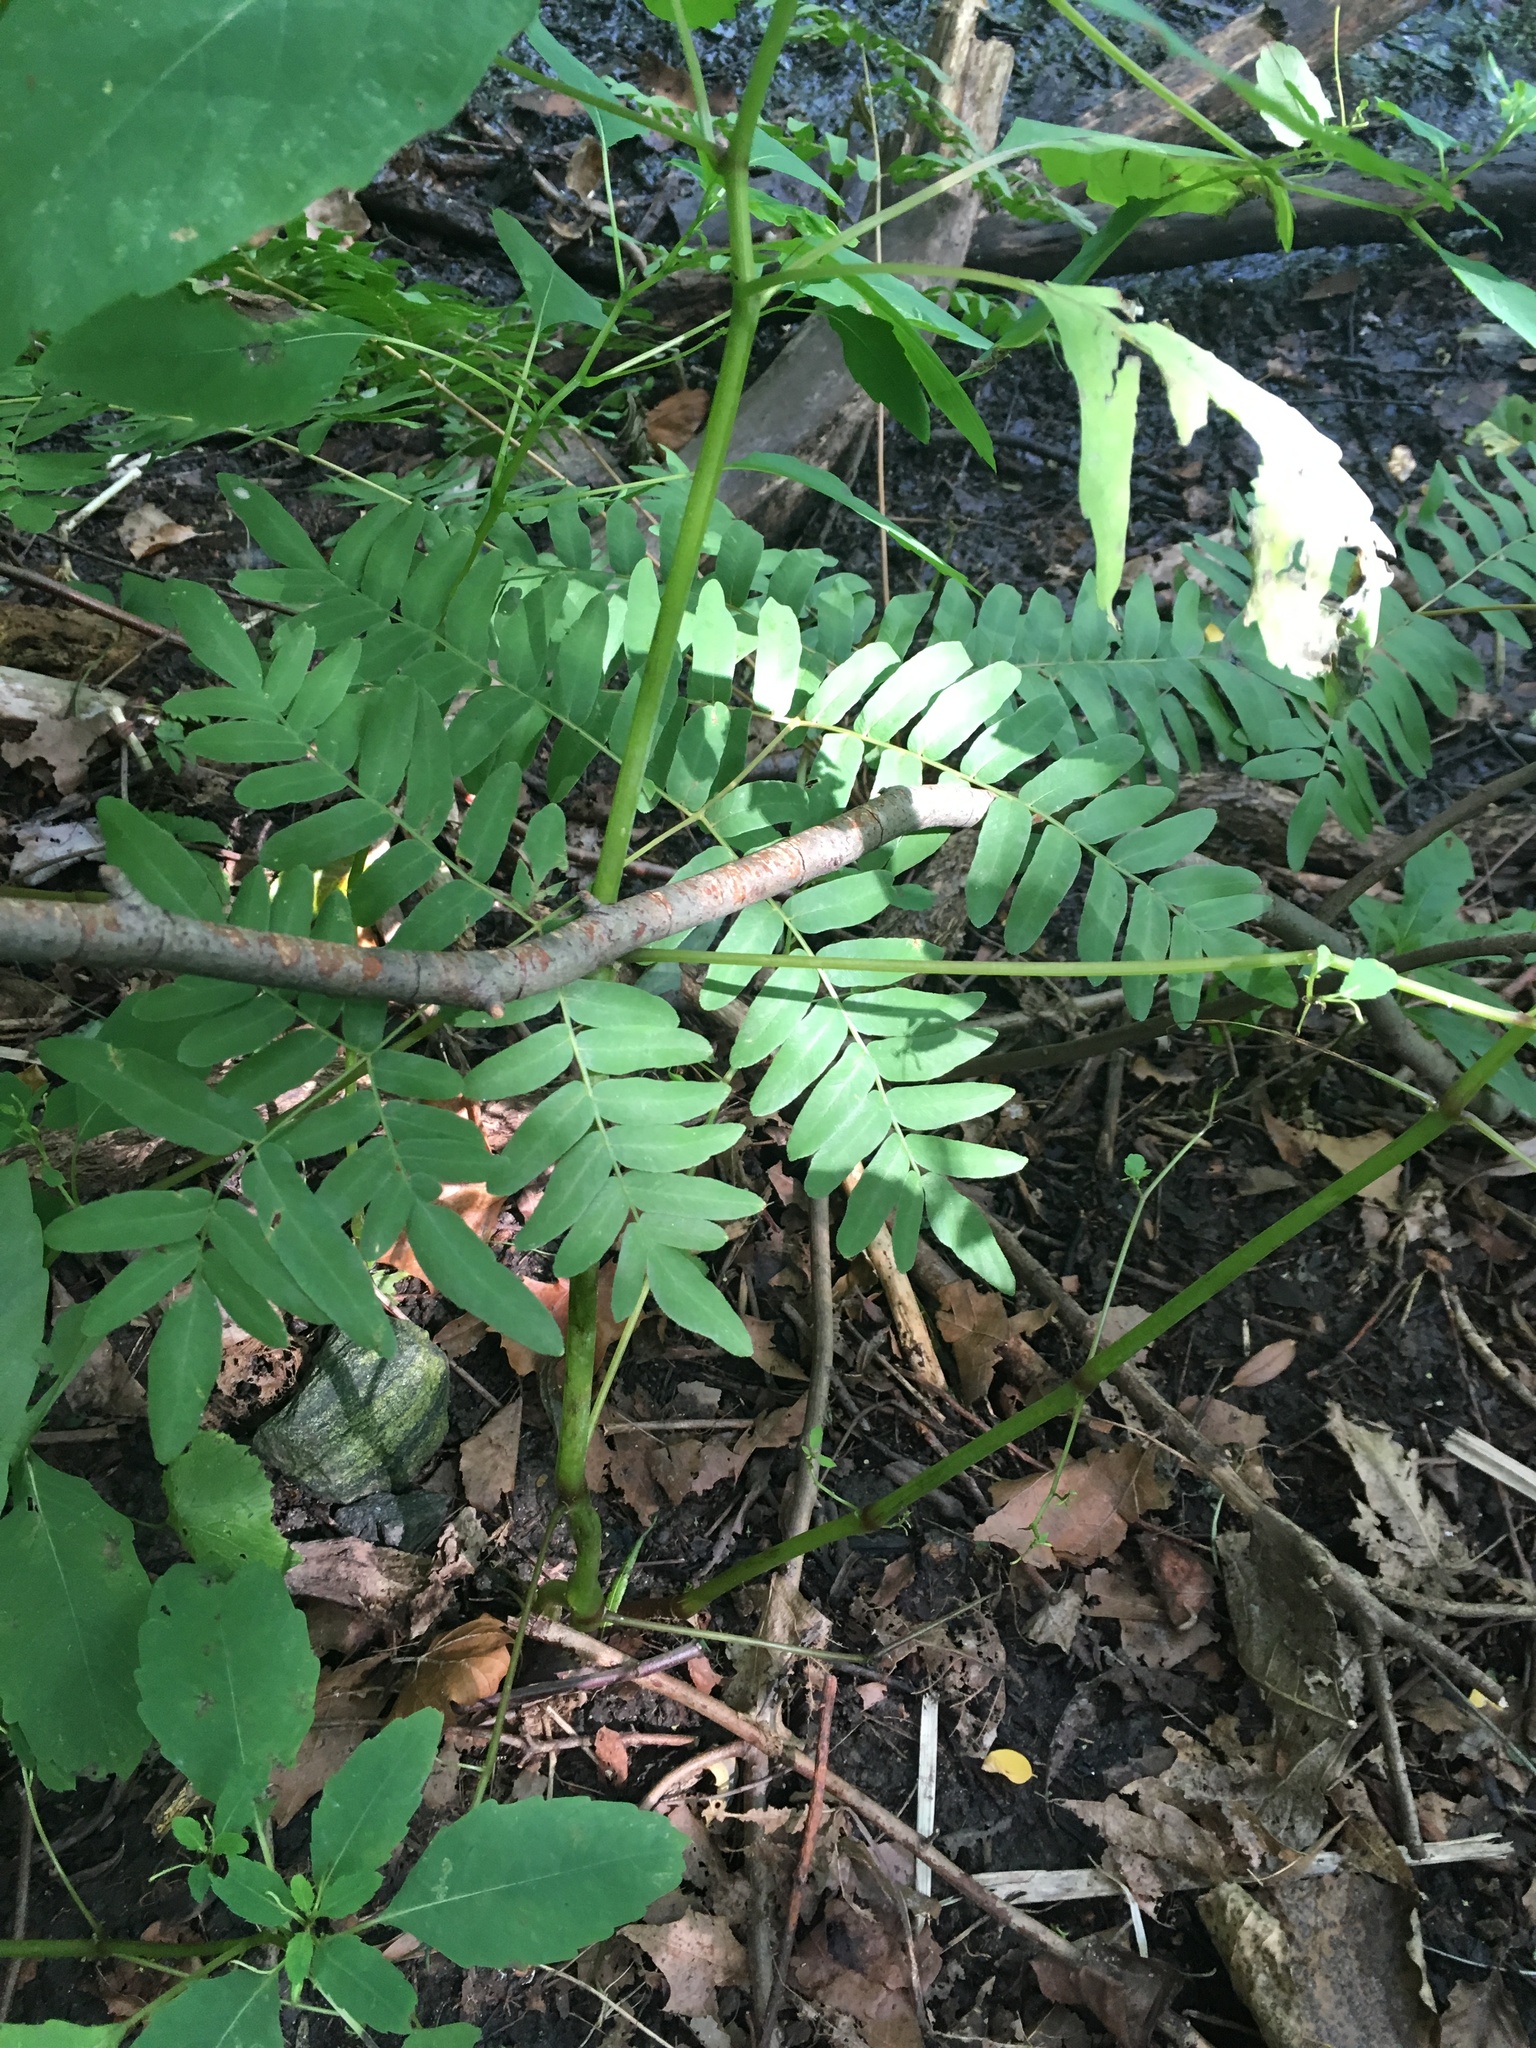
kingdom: Plantae
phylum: Tracheophyta
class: Polypodiopsida
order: Osmundales
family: Osmundaceae
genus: Osmunda
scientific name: Osmunda spectabilis
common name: American royal fern
